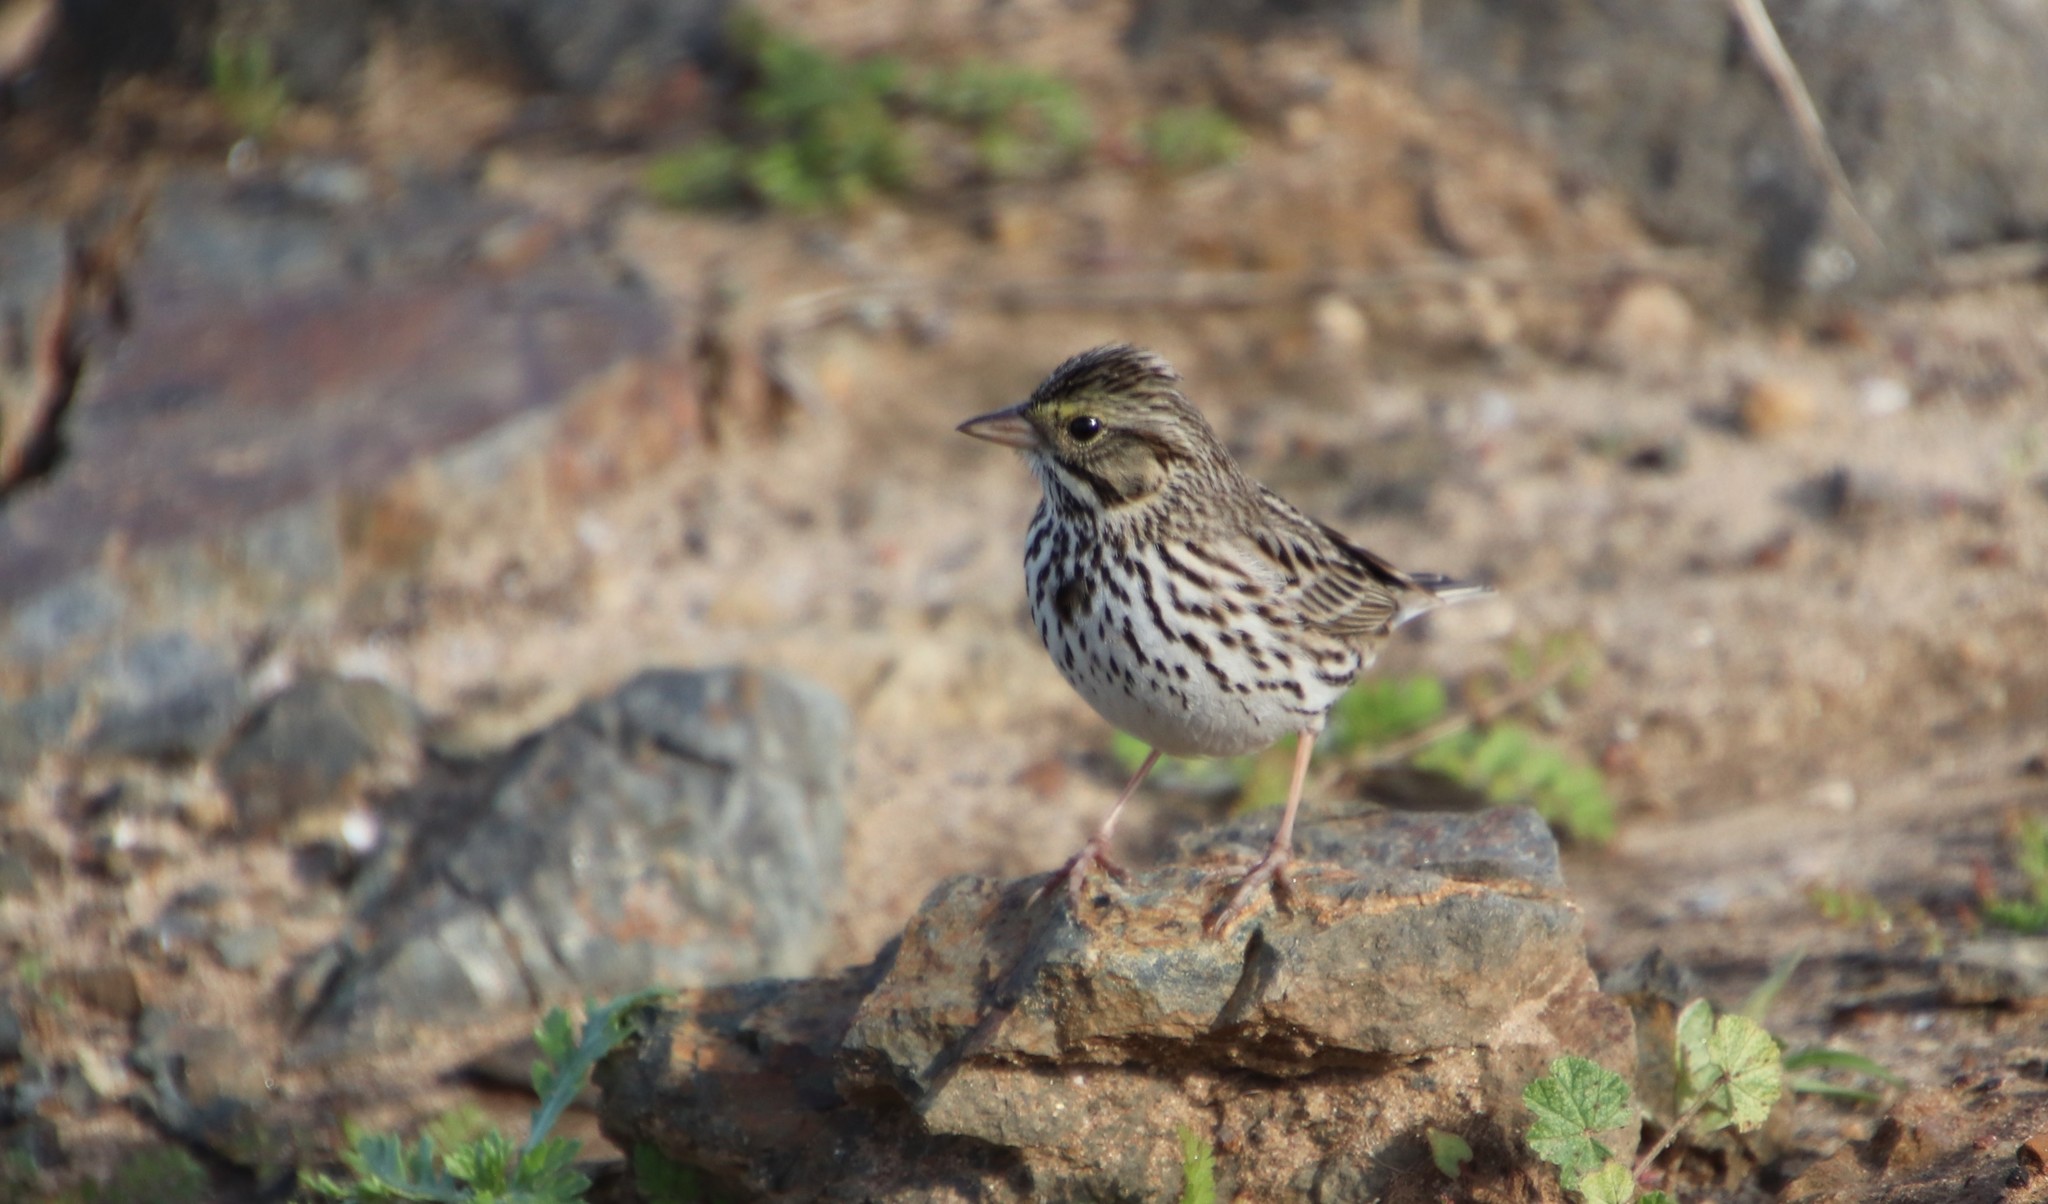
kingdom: Animalia
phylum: Chordata
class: Aves
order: Passeriformes
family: Passerellidae
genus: Passerculus
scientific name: Passerculus sandwichensis
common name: Savannah sparrow
